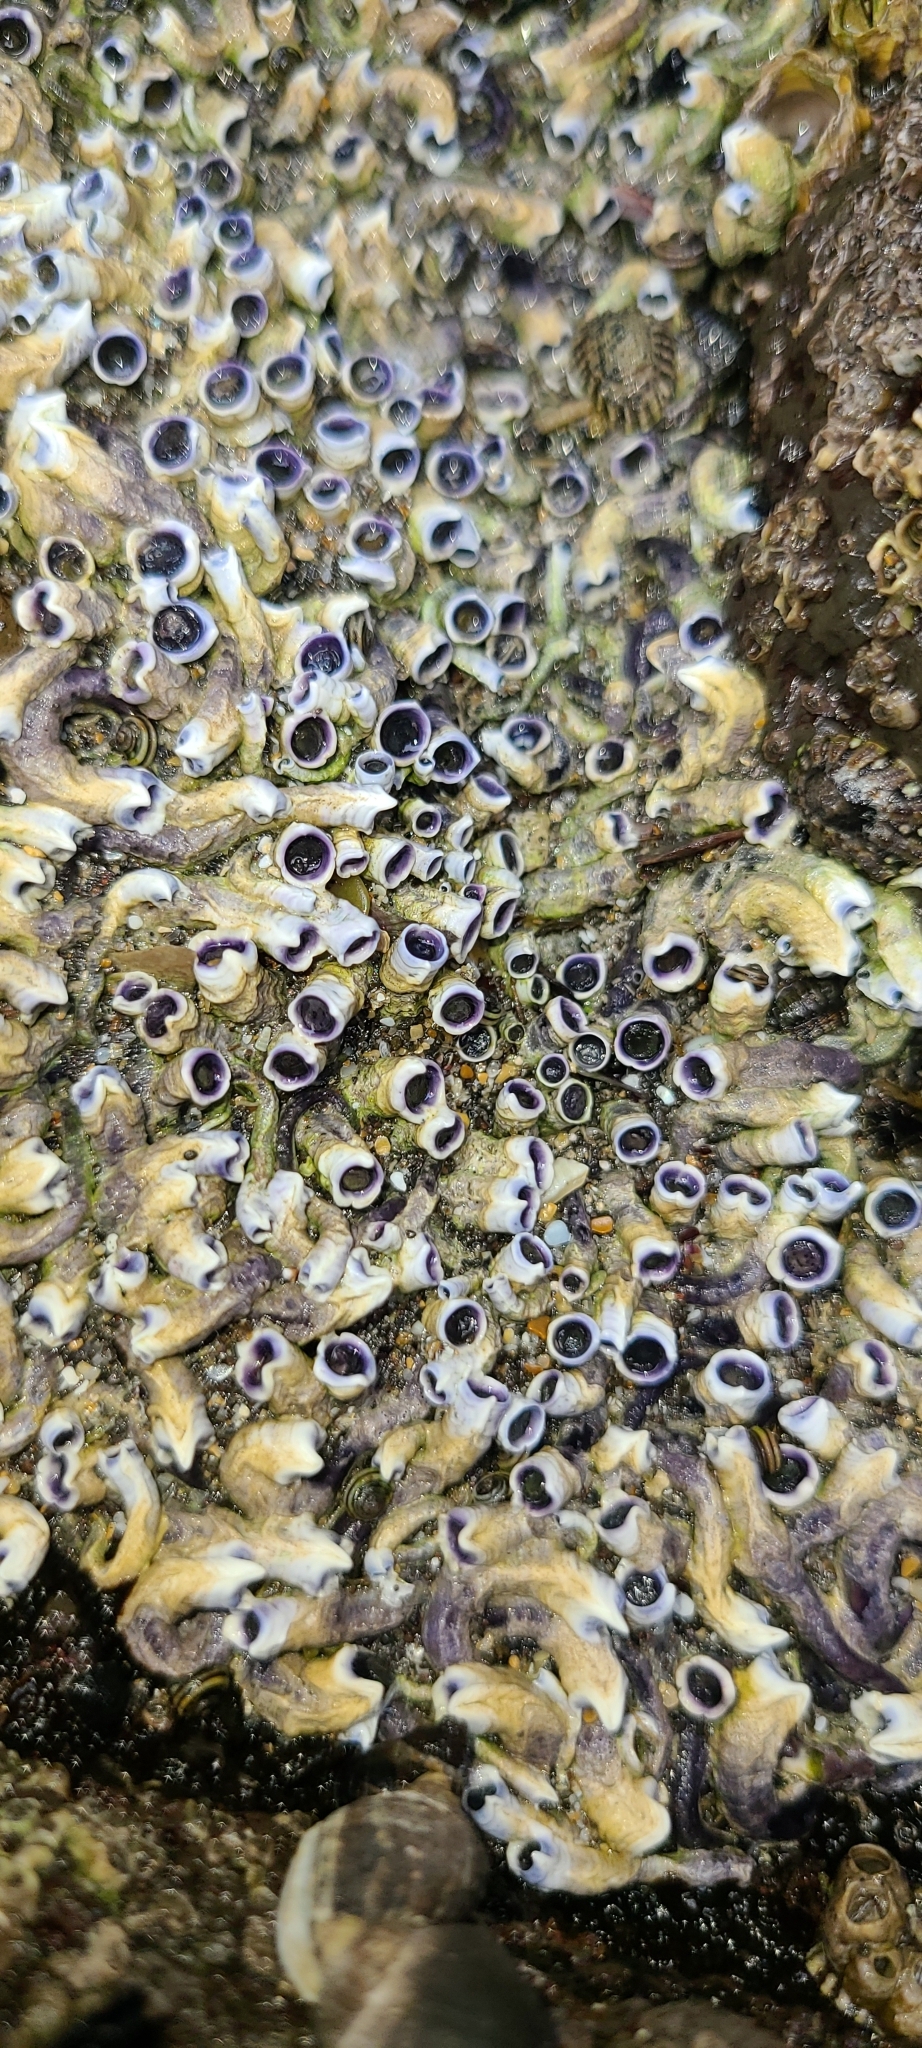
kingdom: Animalia
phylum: Annelida
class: Polychaeta
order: Sabellida
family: Serpulidae
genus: Spirobranchus
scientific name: Spirobranchus cariniferus
